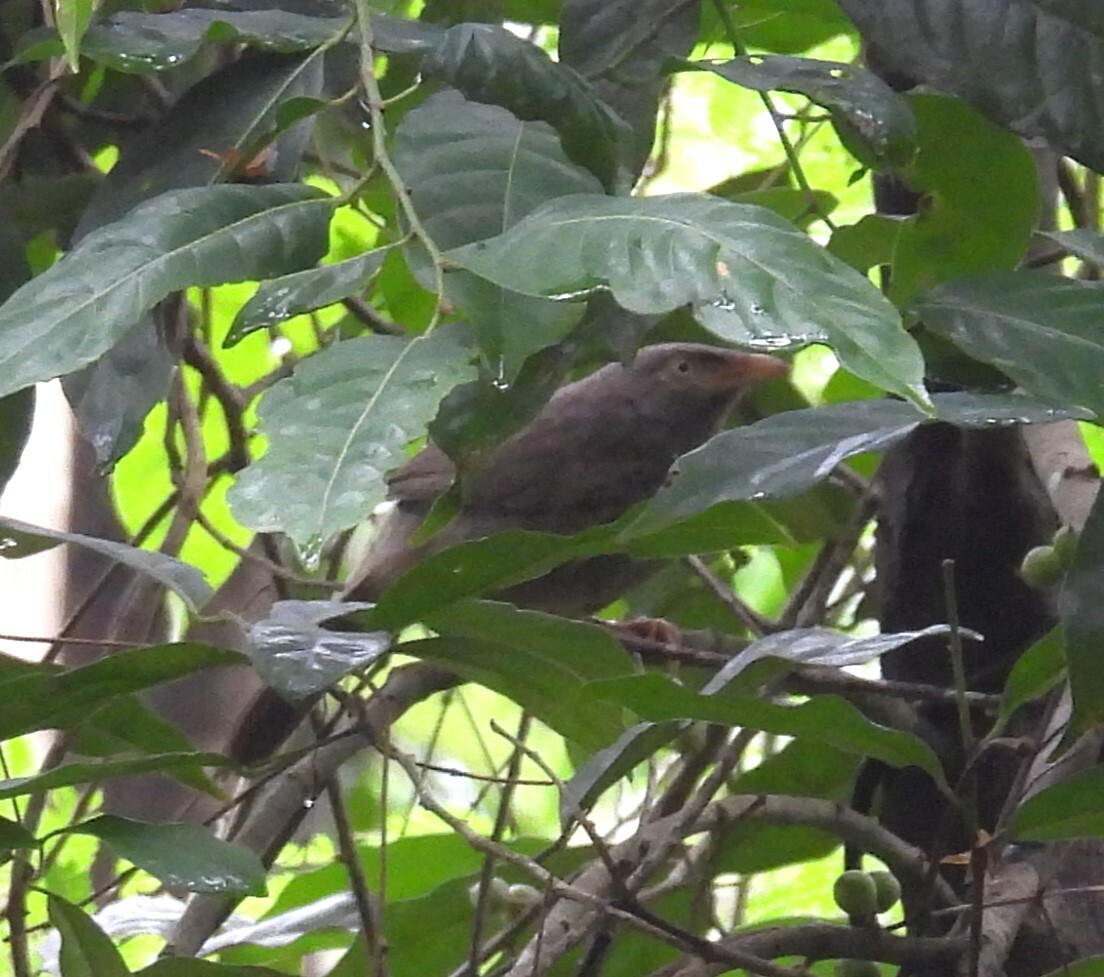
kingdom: Animalia
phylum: Chordata
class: Aves
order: Passeriformes
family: Leiothrichidae
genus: Turdoides
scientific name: Turdoides striata
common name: Jungle babbler
